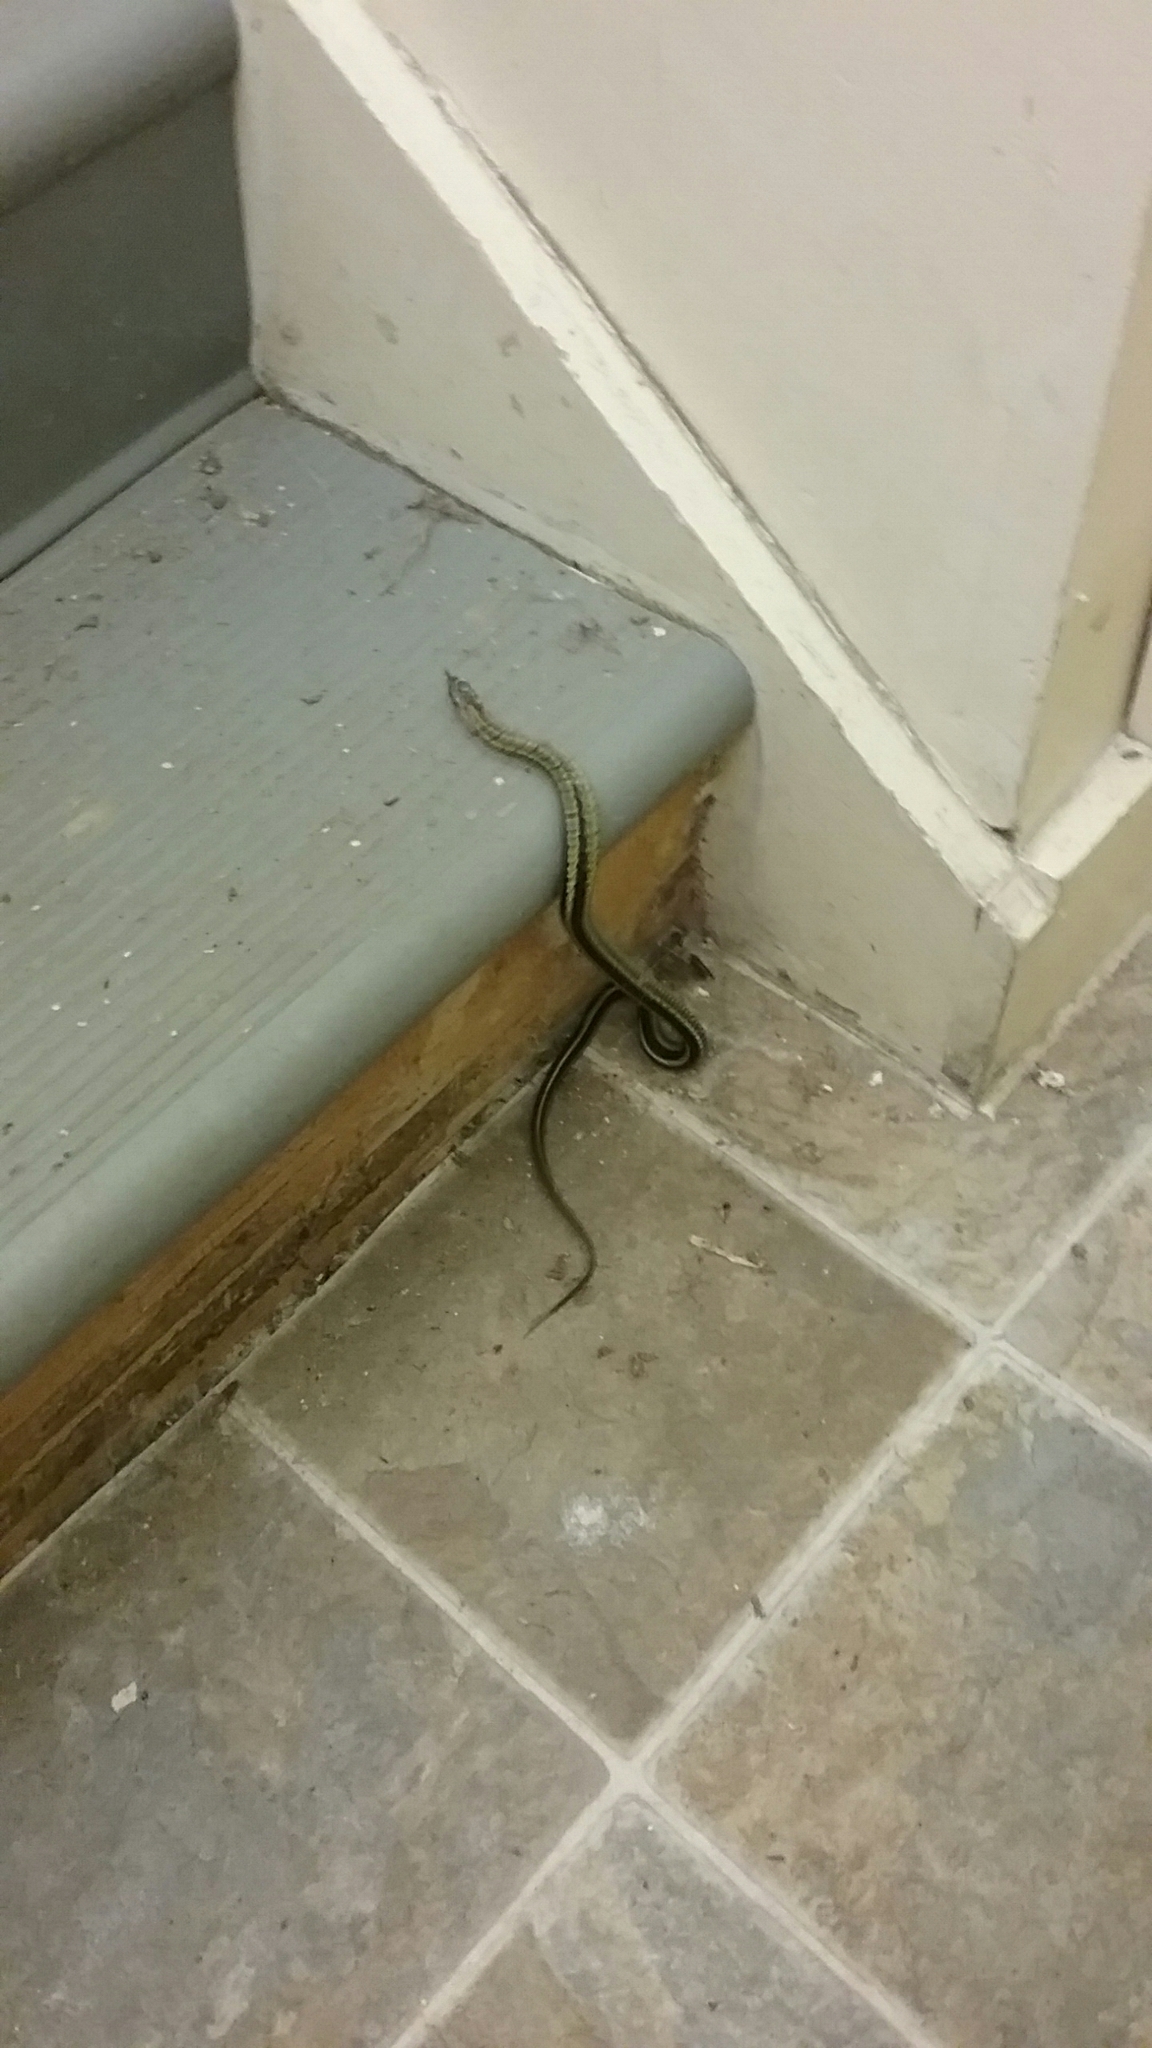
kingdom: Animalia
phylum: Chordata
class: Squamata
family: Colubridae
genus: Thamnophis
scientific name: Thamnophis sirtalis
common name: Common garter snake
